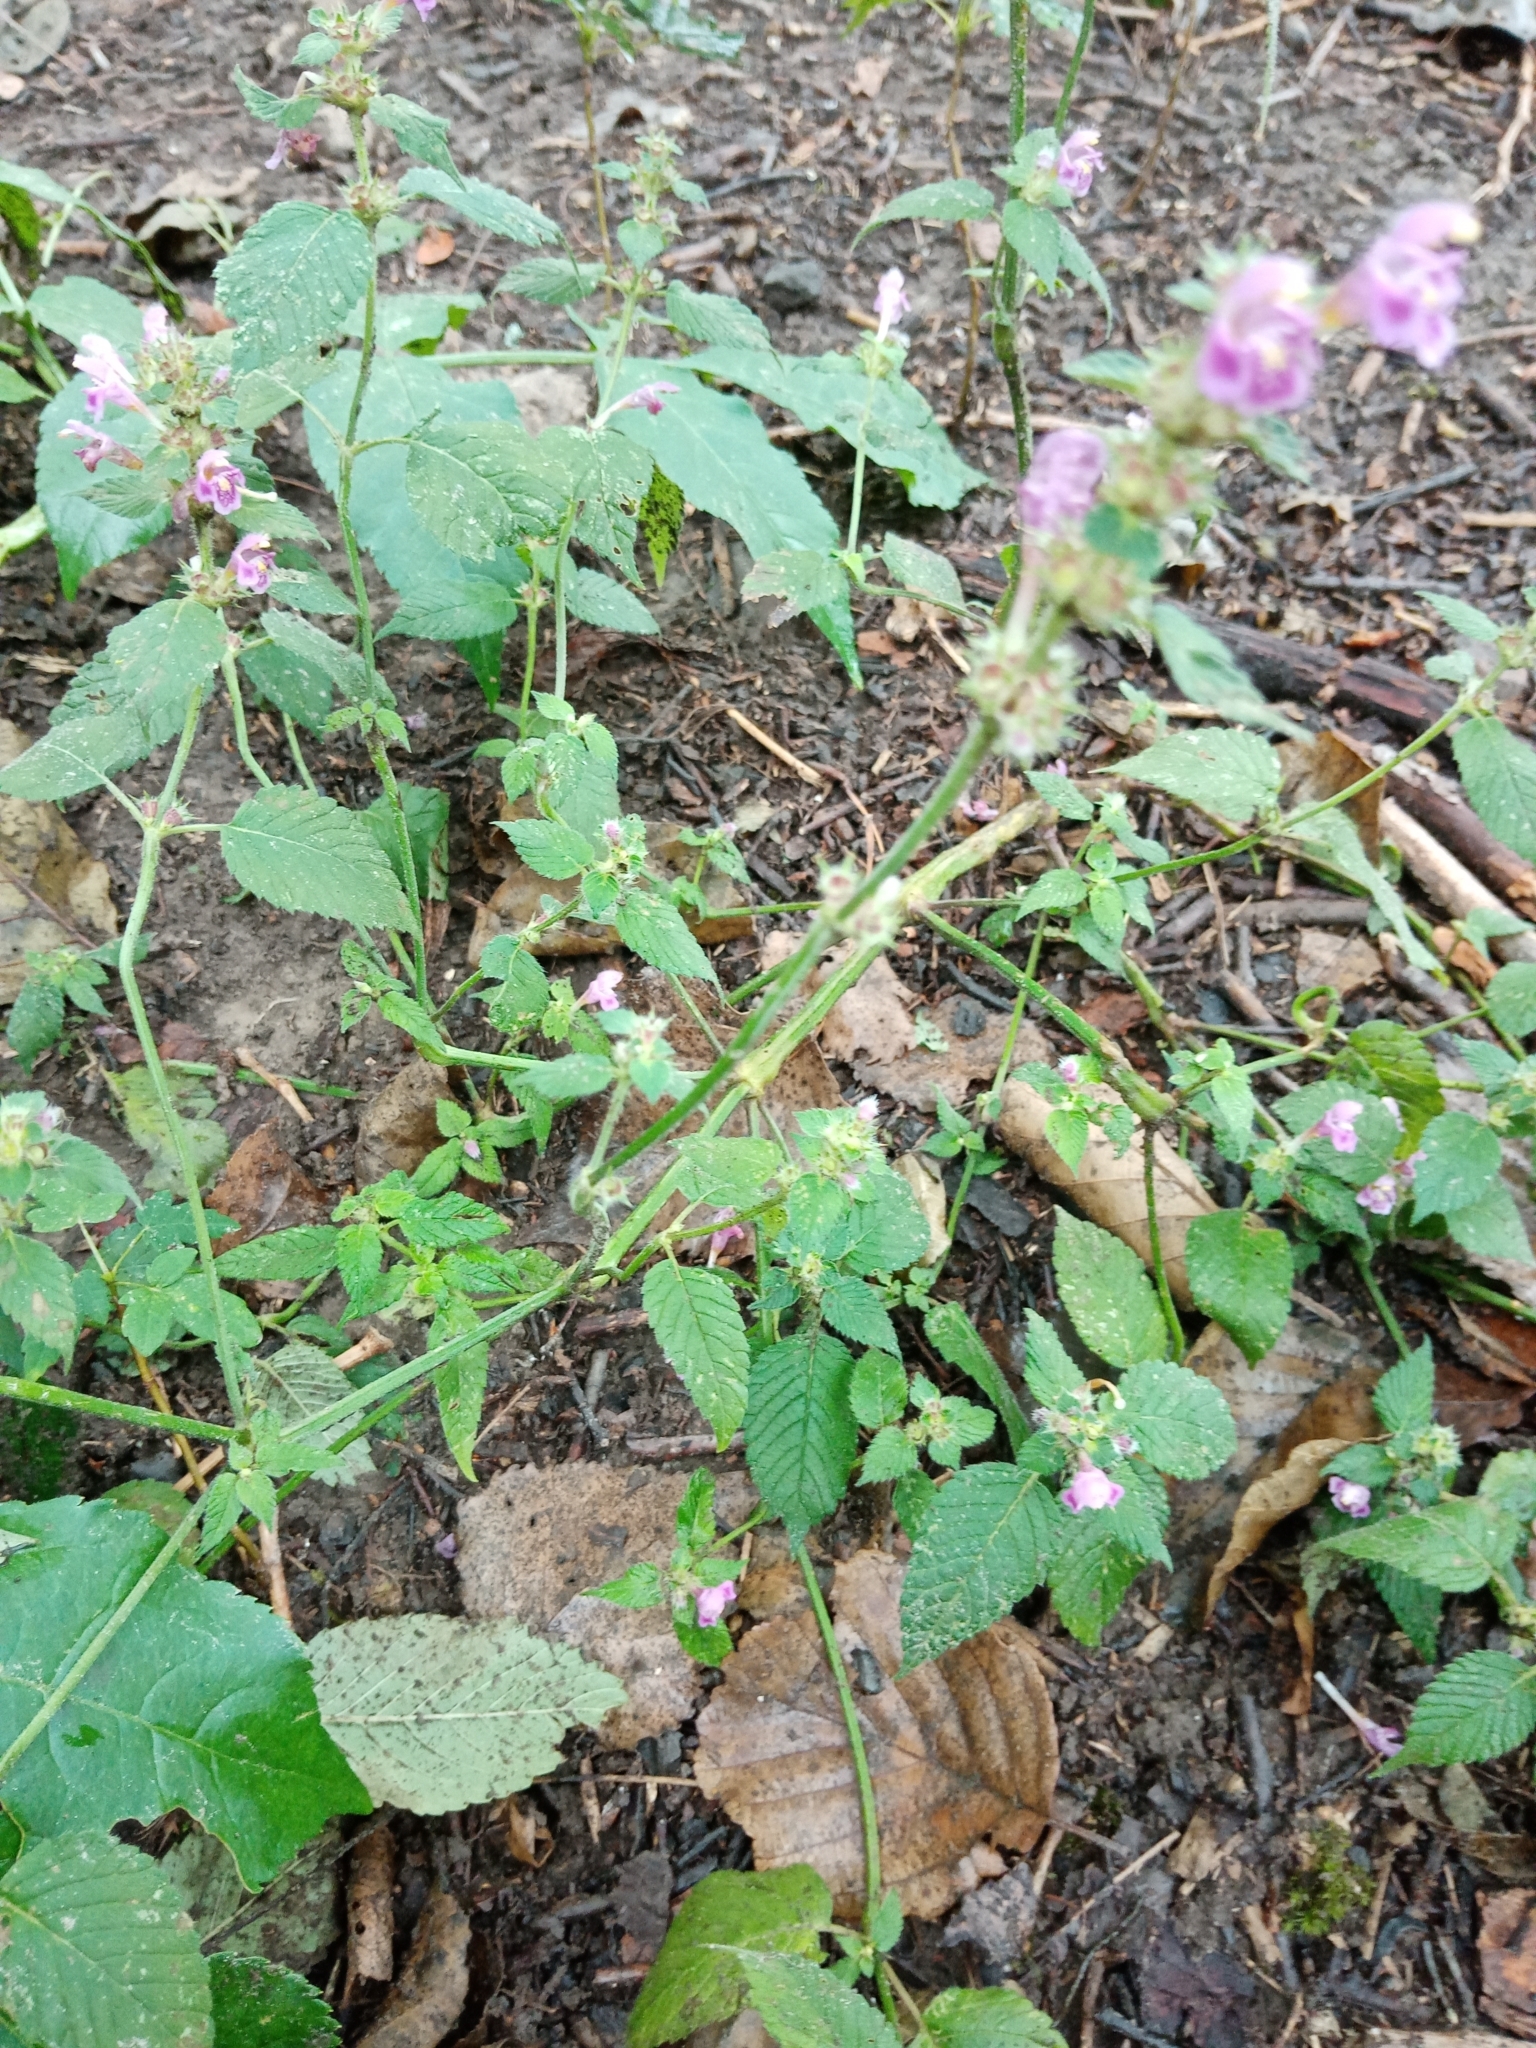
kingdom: Plantae
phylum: Tracheophyta
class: Magnoliopsida
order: Lamiales
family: Lamiaceae
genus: Galeopsis
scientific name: Galeopsis pubescens
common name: Downy hemp-nettle
